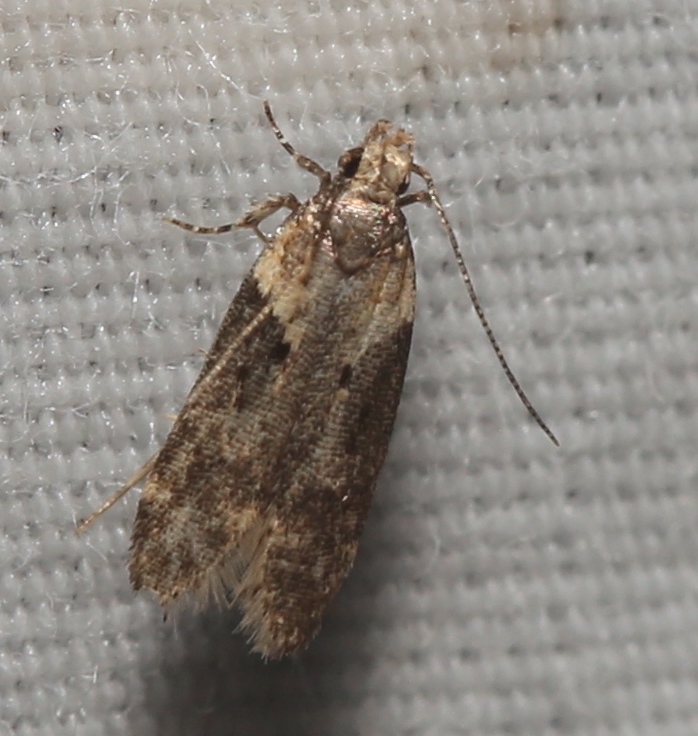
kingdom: Animalia
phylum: Arthropoda
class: Insecta
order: Lepidoptera
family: Gelechiidae
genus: Chionodes
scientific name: Chionodes mediofuscella
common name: Black-smudged chionodes moth
